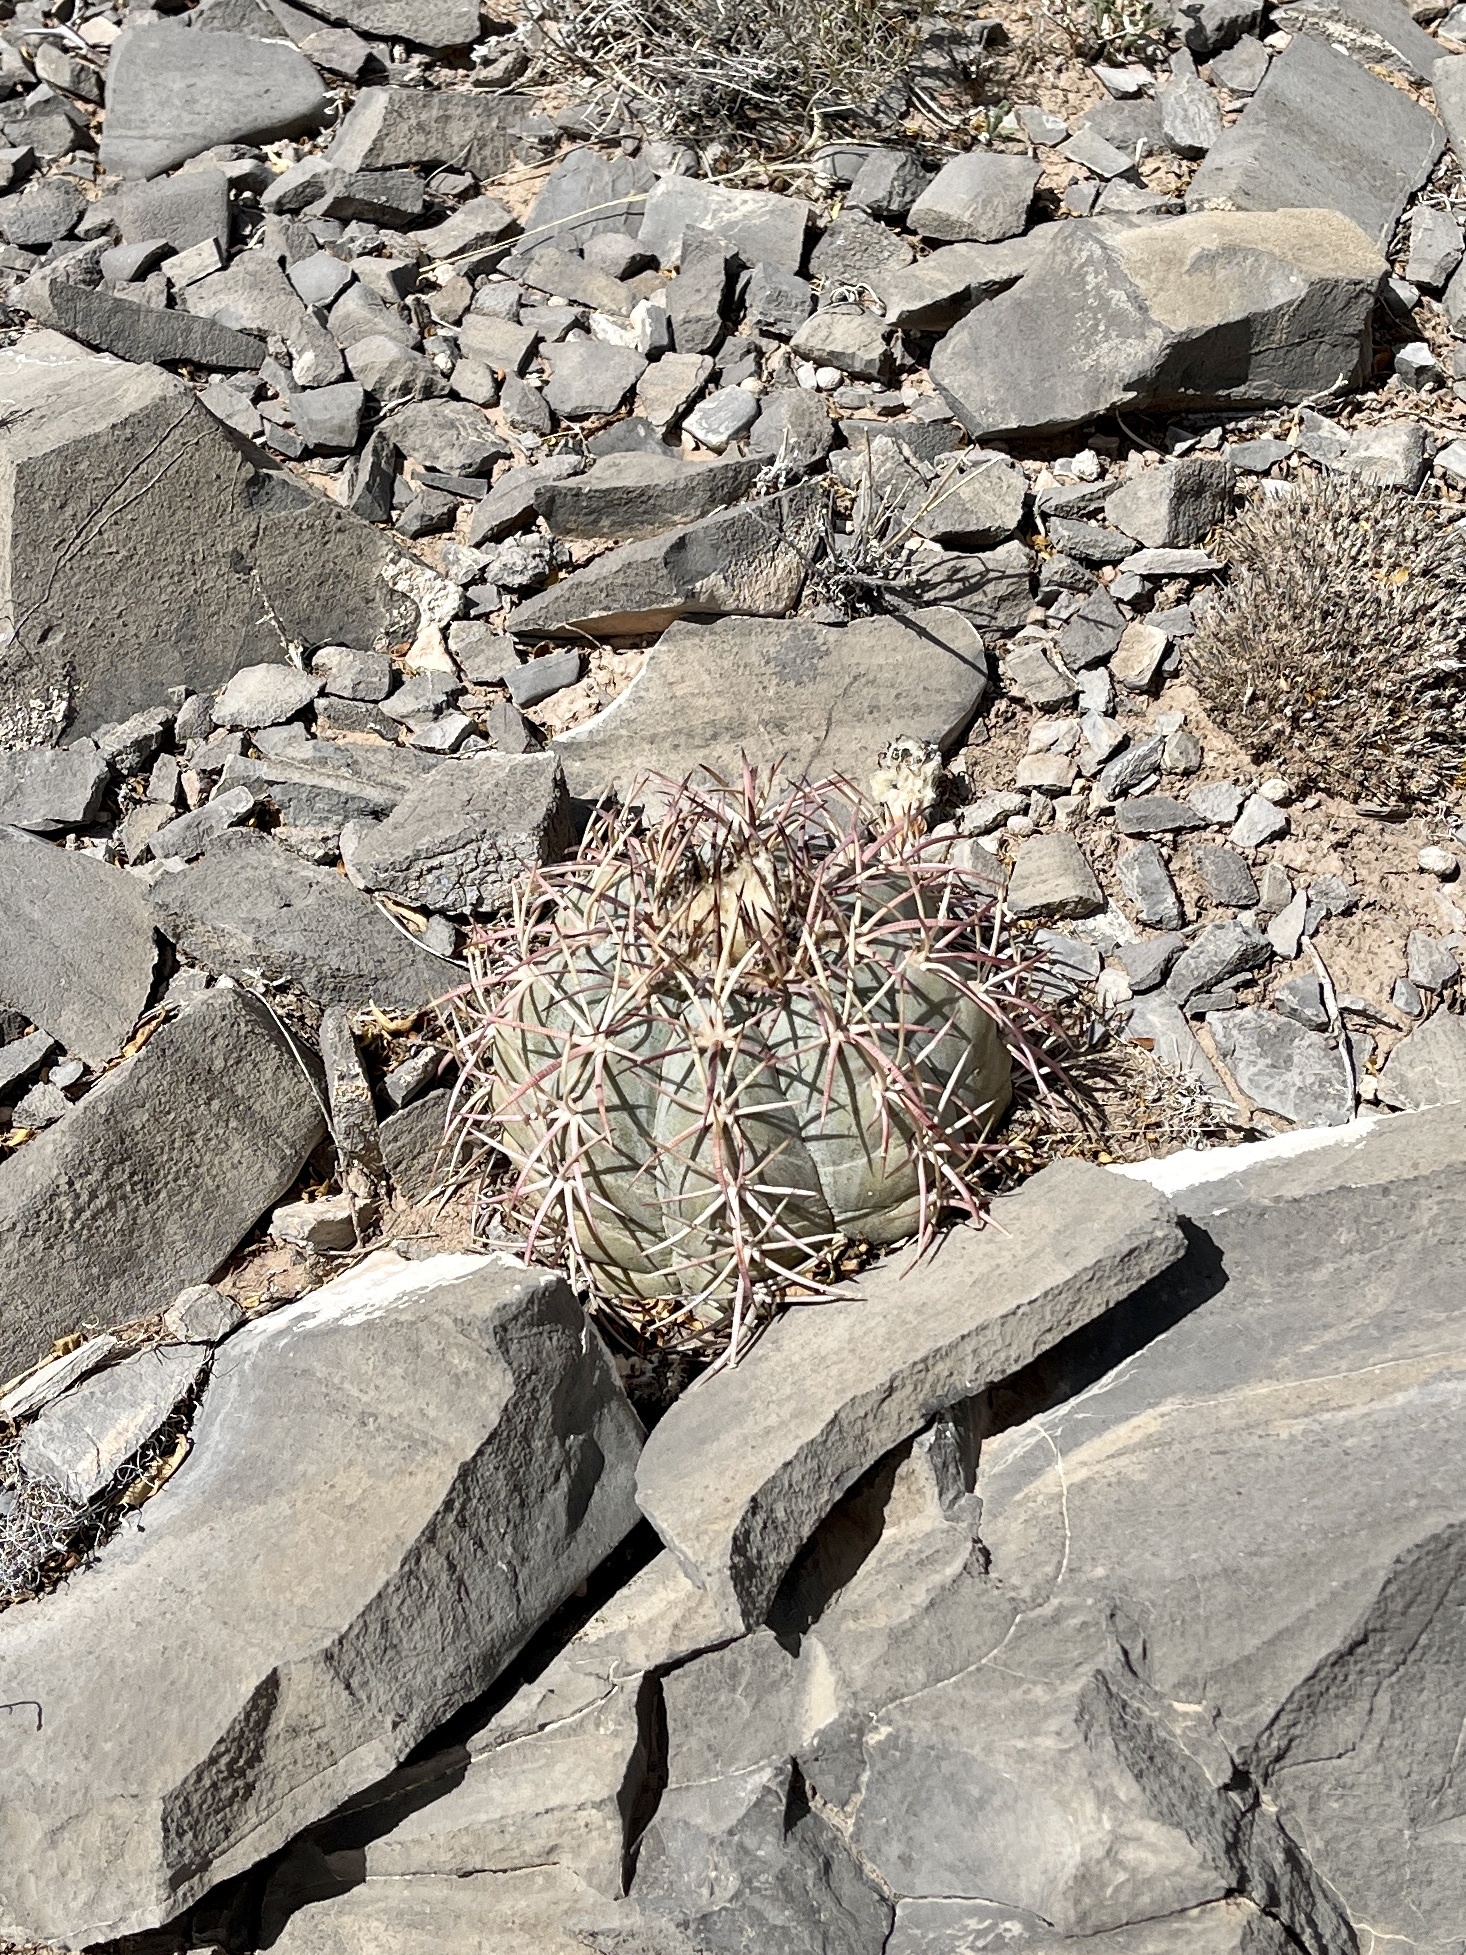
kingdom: Plantae
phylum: Tracheophyta
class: Magnoliopsida
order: Caryophyllales
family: Cactaceae
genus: Echinocactus
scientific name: Echinocactus horizonthalonius
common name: Devilshead
